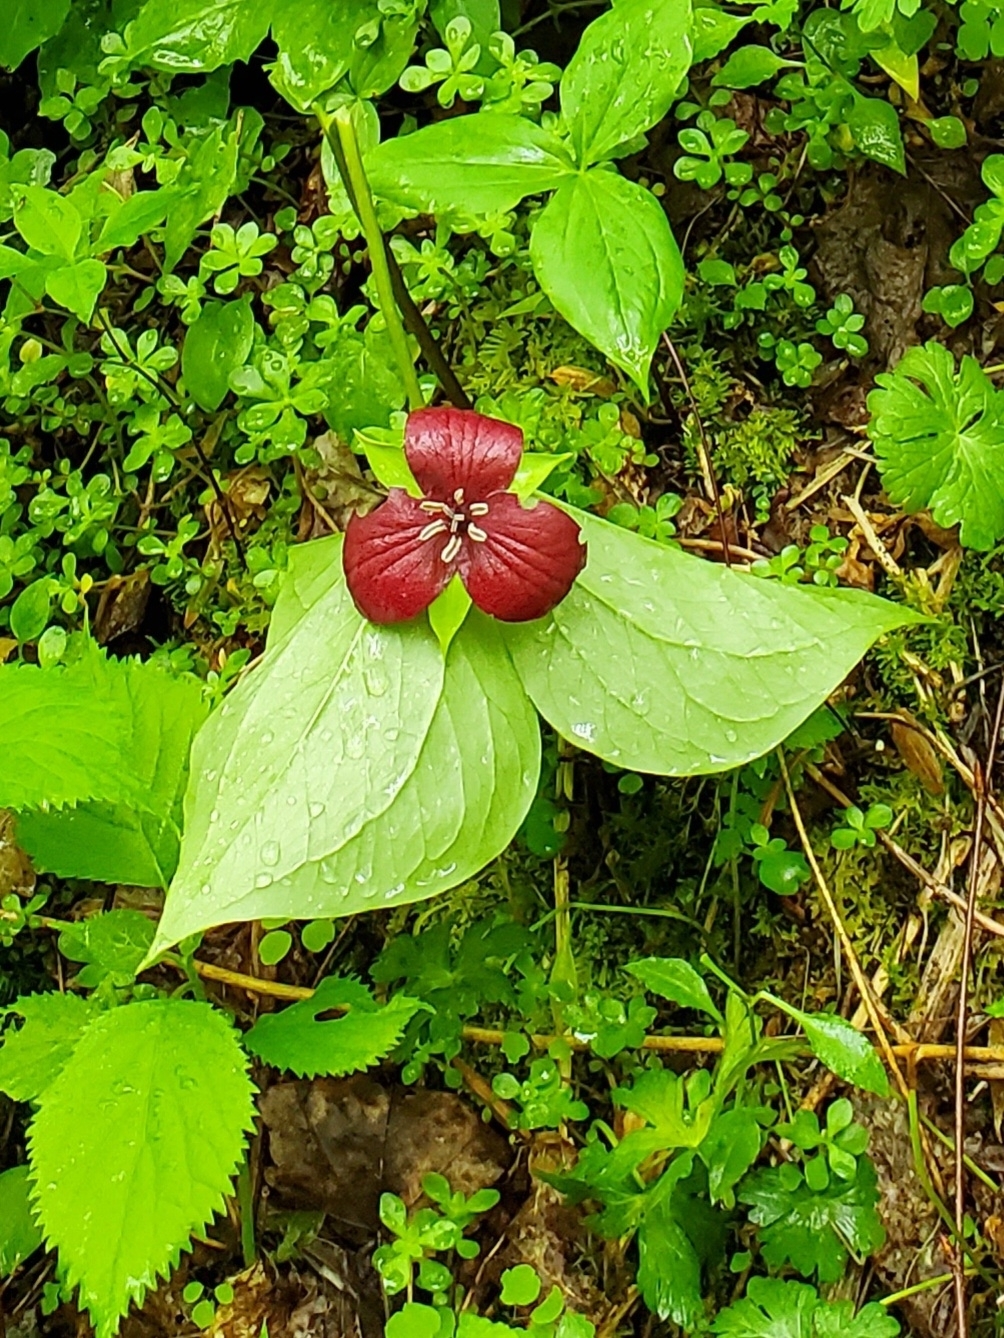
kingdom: Plantae
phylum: Tracheophyta
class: Liliopsida
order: Liliales
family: Melanthiaceae
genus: Trillium
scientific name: Trillium vaseyi
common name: Sweet trillium
